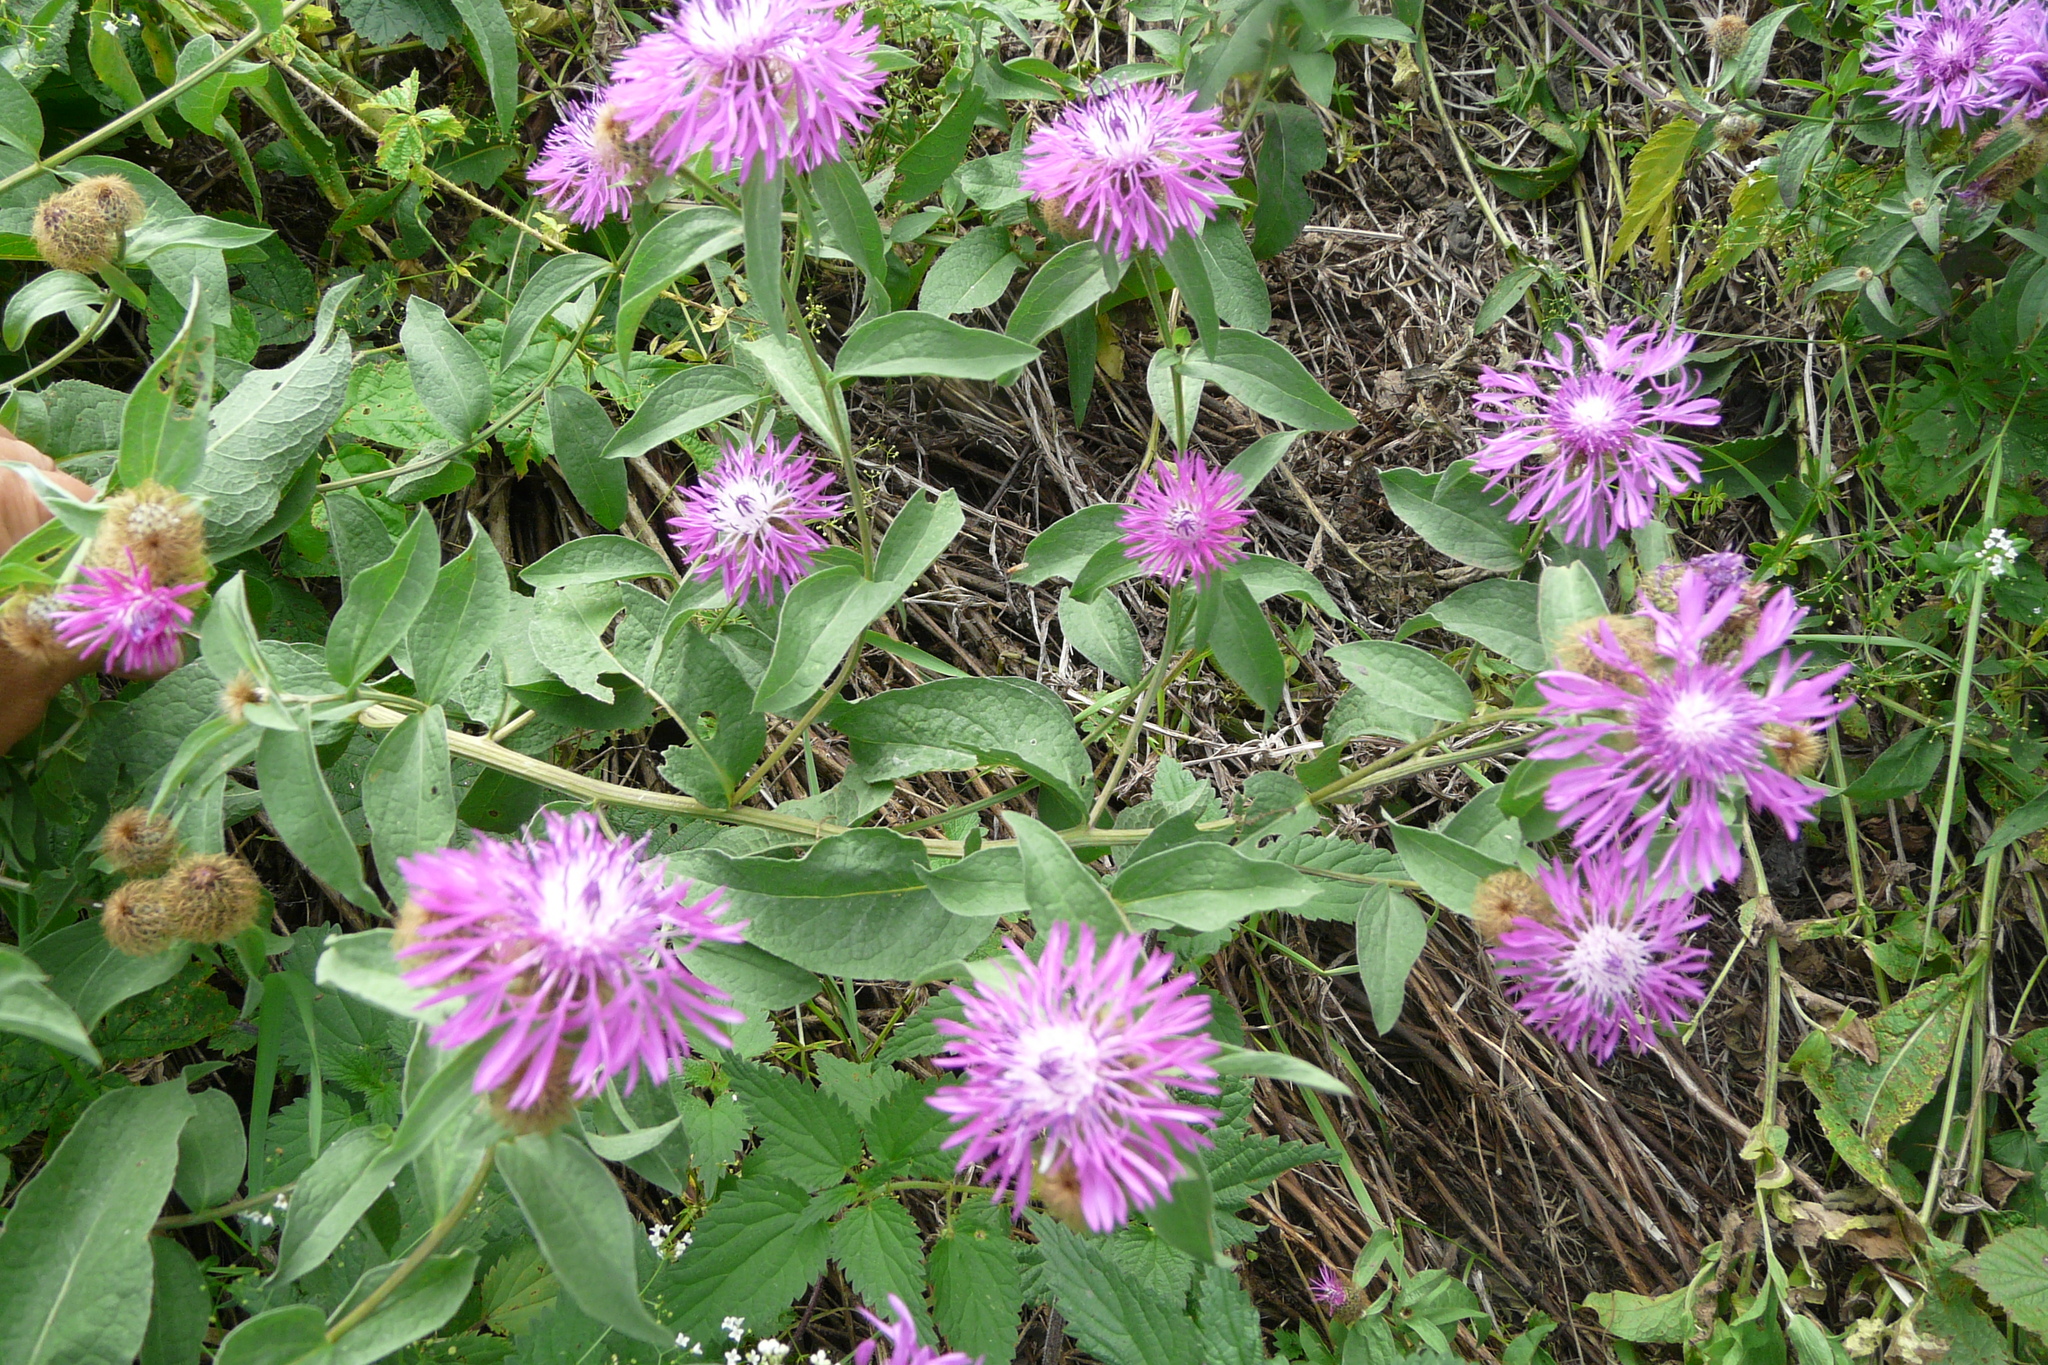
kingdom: Plantae
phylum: Tracheophyta
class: Magnoliopsida
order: Asterales
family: Asteraceae
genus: Centaurea
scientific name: Centaurea pseudophrygia
